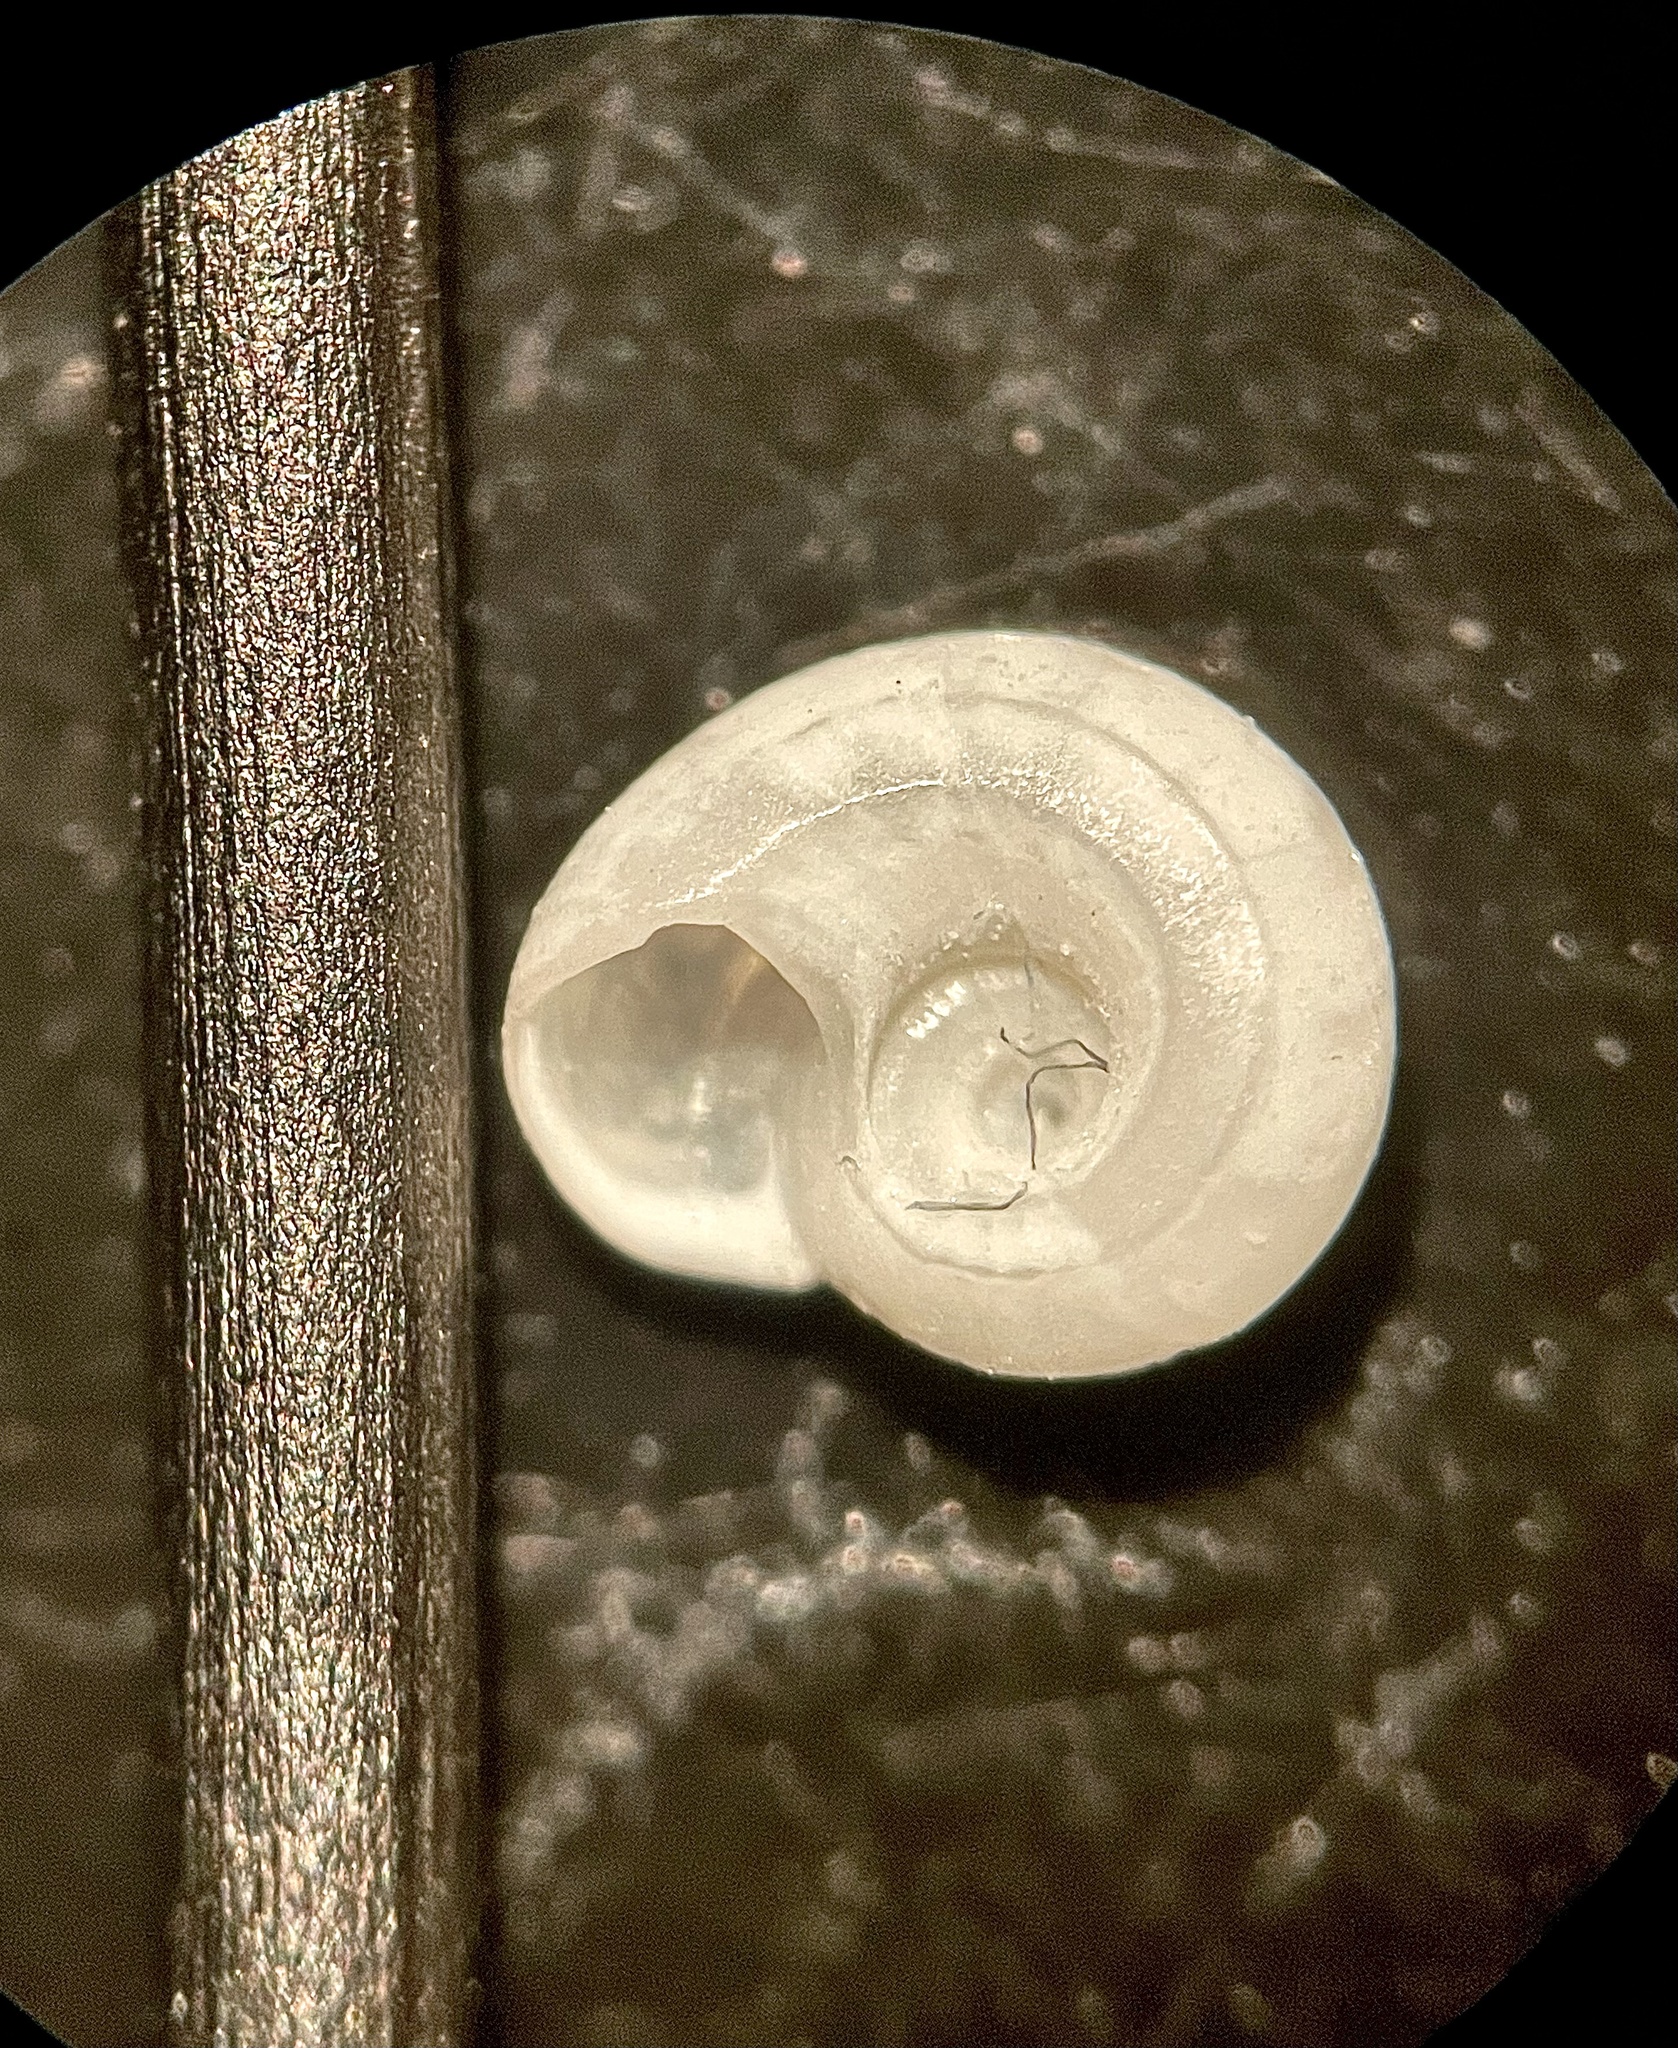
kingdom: Animalia
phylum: Mollusca
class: Gastropoda
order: Littorinimorpha
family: Tornidae
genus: Cyclostremiscus
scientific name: Cyclostremiscus pentagonus
